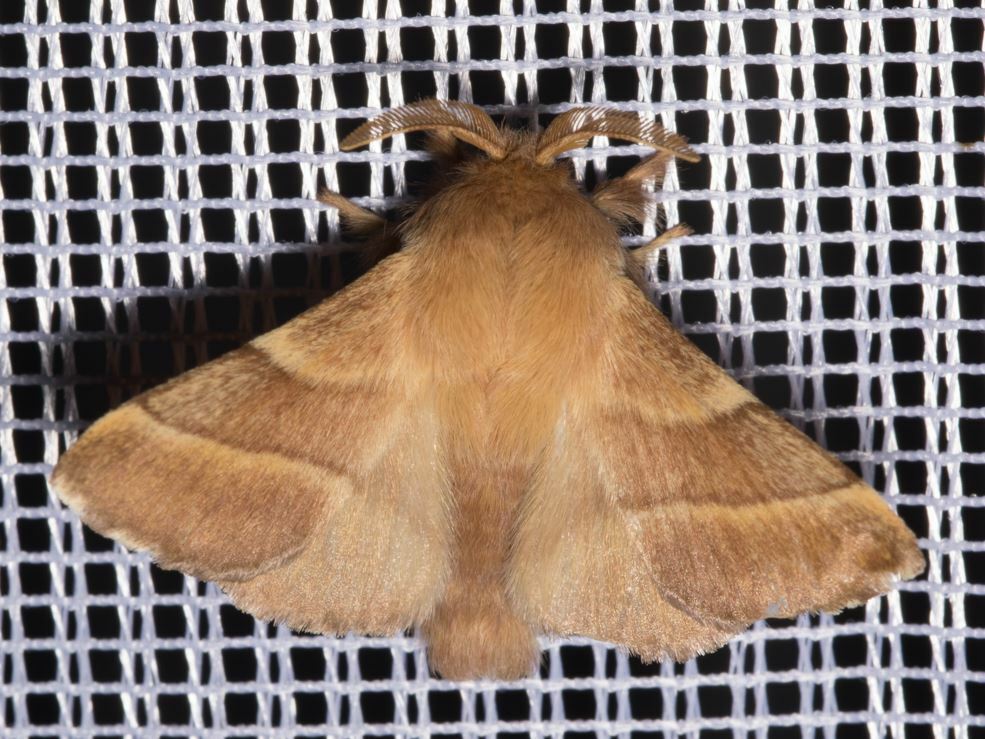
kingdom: Animalia
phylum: Arthropoda
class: Insecta
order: Lepidoptera
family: Lasiocampidae
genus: Malacosoma
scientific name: Malacosoma neustria
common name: The lackey
